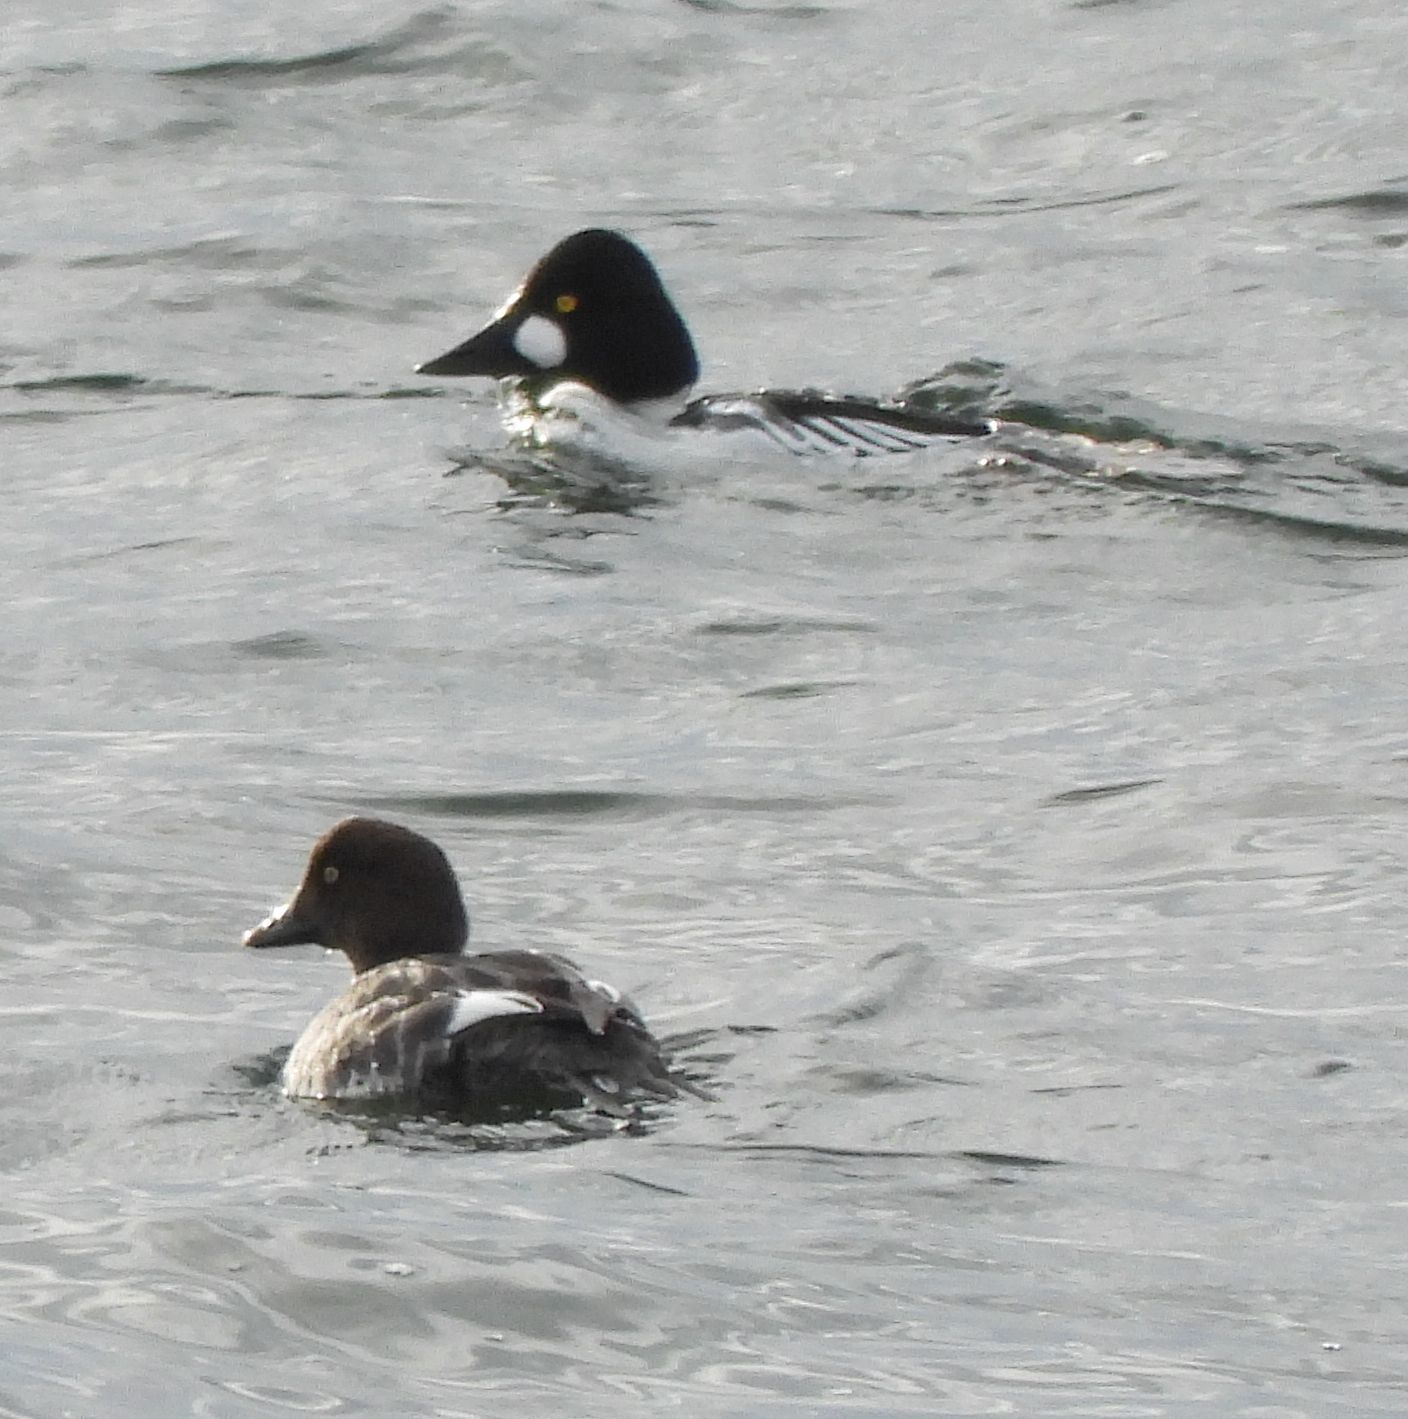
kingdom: Animalia
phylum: Chordata
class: Aves
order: Anseriformes
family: Anatidae
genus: Bucephala
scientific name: Bucephala clangula
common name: Common goldeneye
